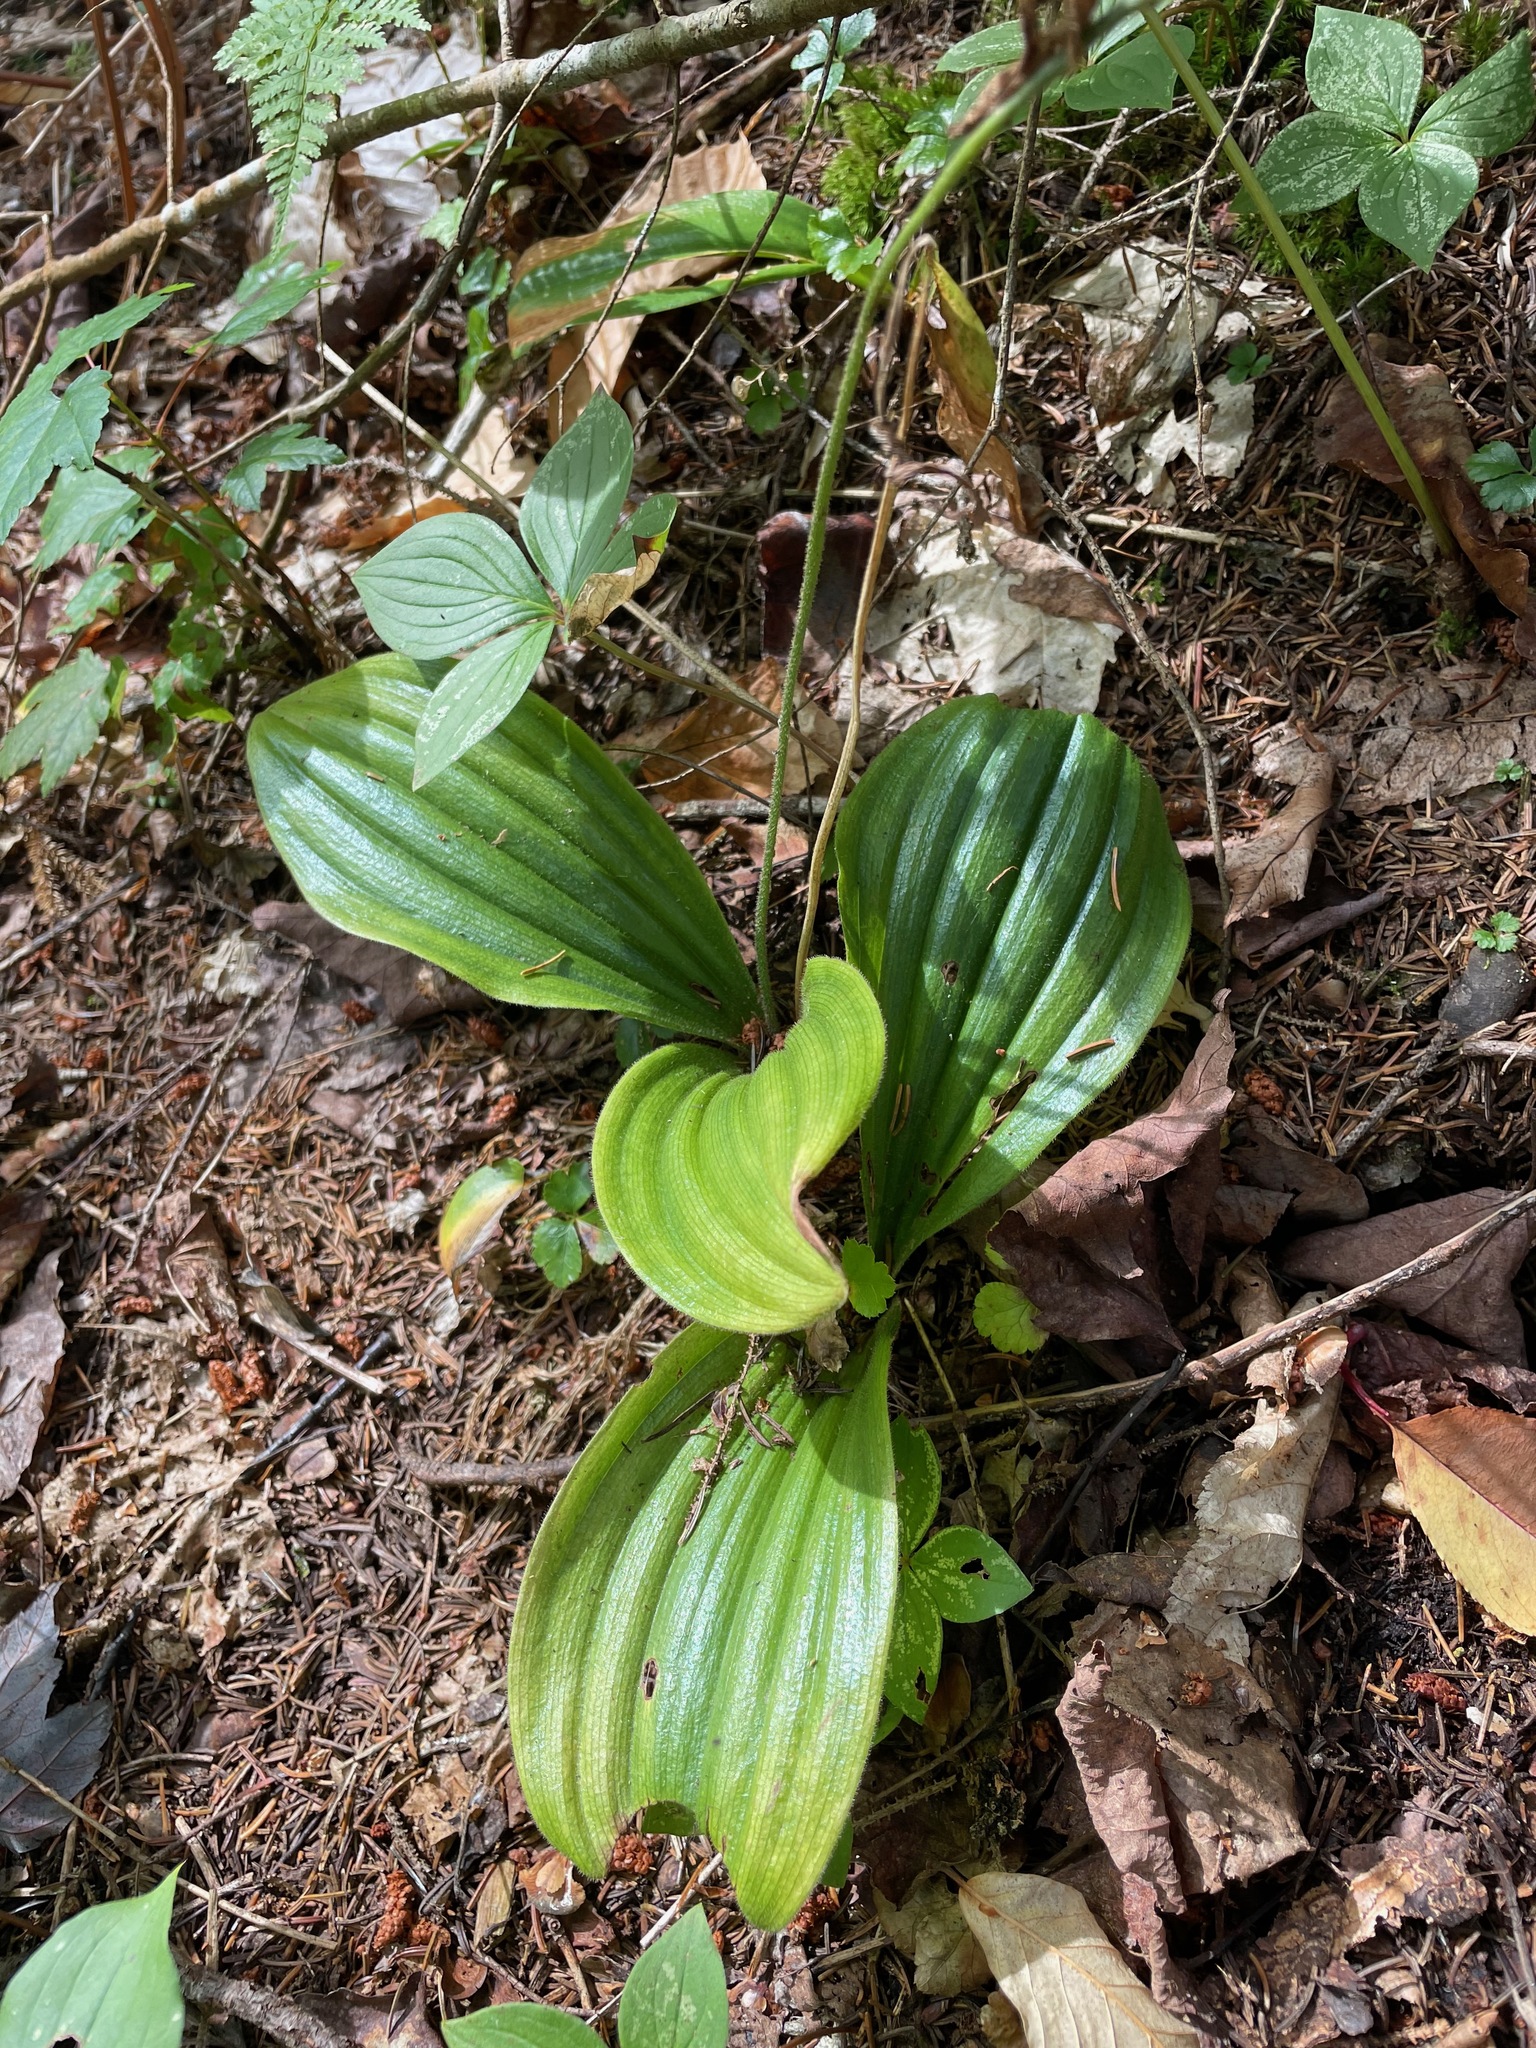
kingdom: Plantae
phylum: Tracheophyta
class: Liliopsida
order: Asparagales
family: Orchidaceae
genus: Cypripedium
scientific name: Cypripedium acaule
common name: Pink lady's-slipper
